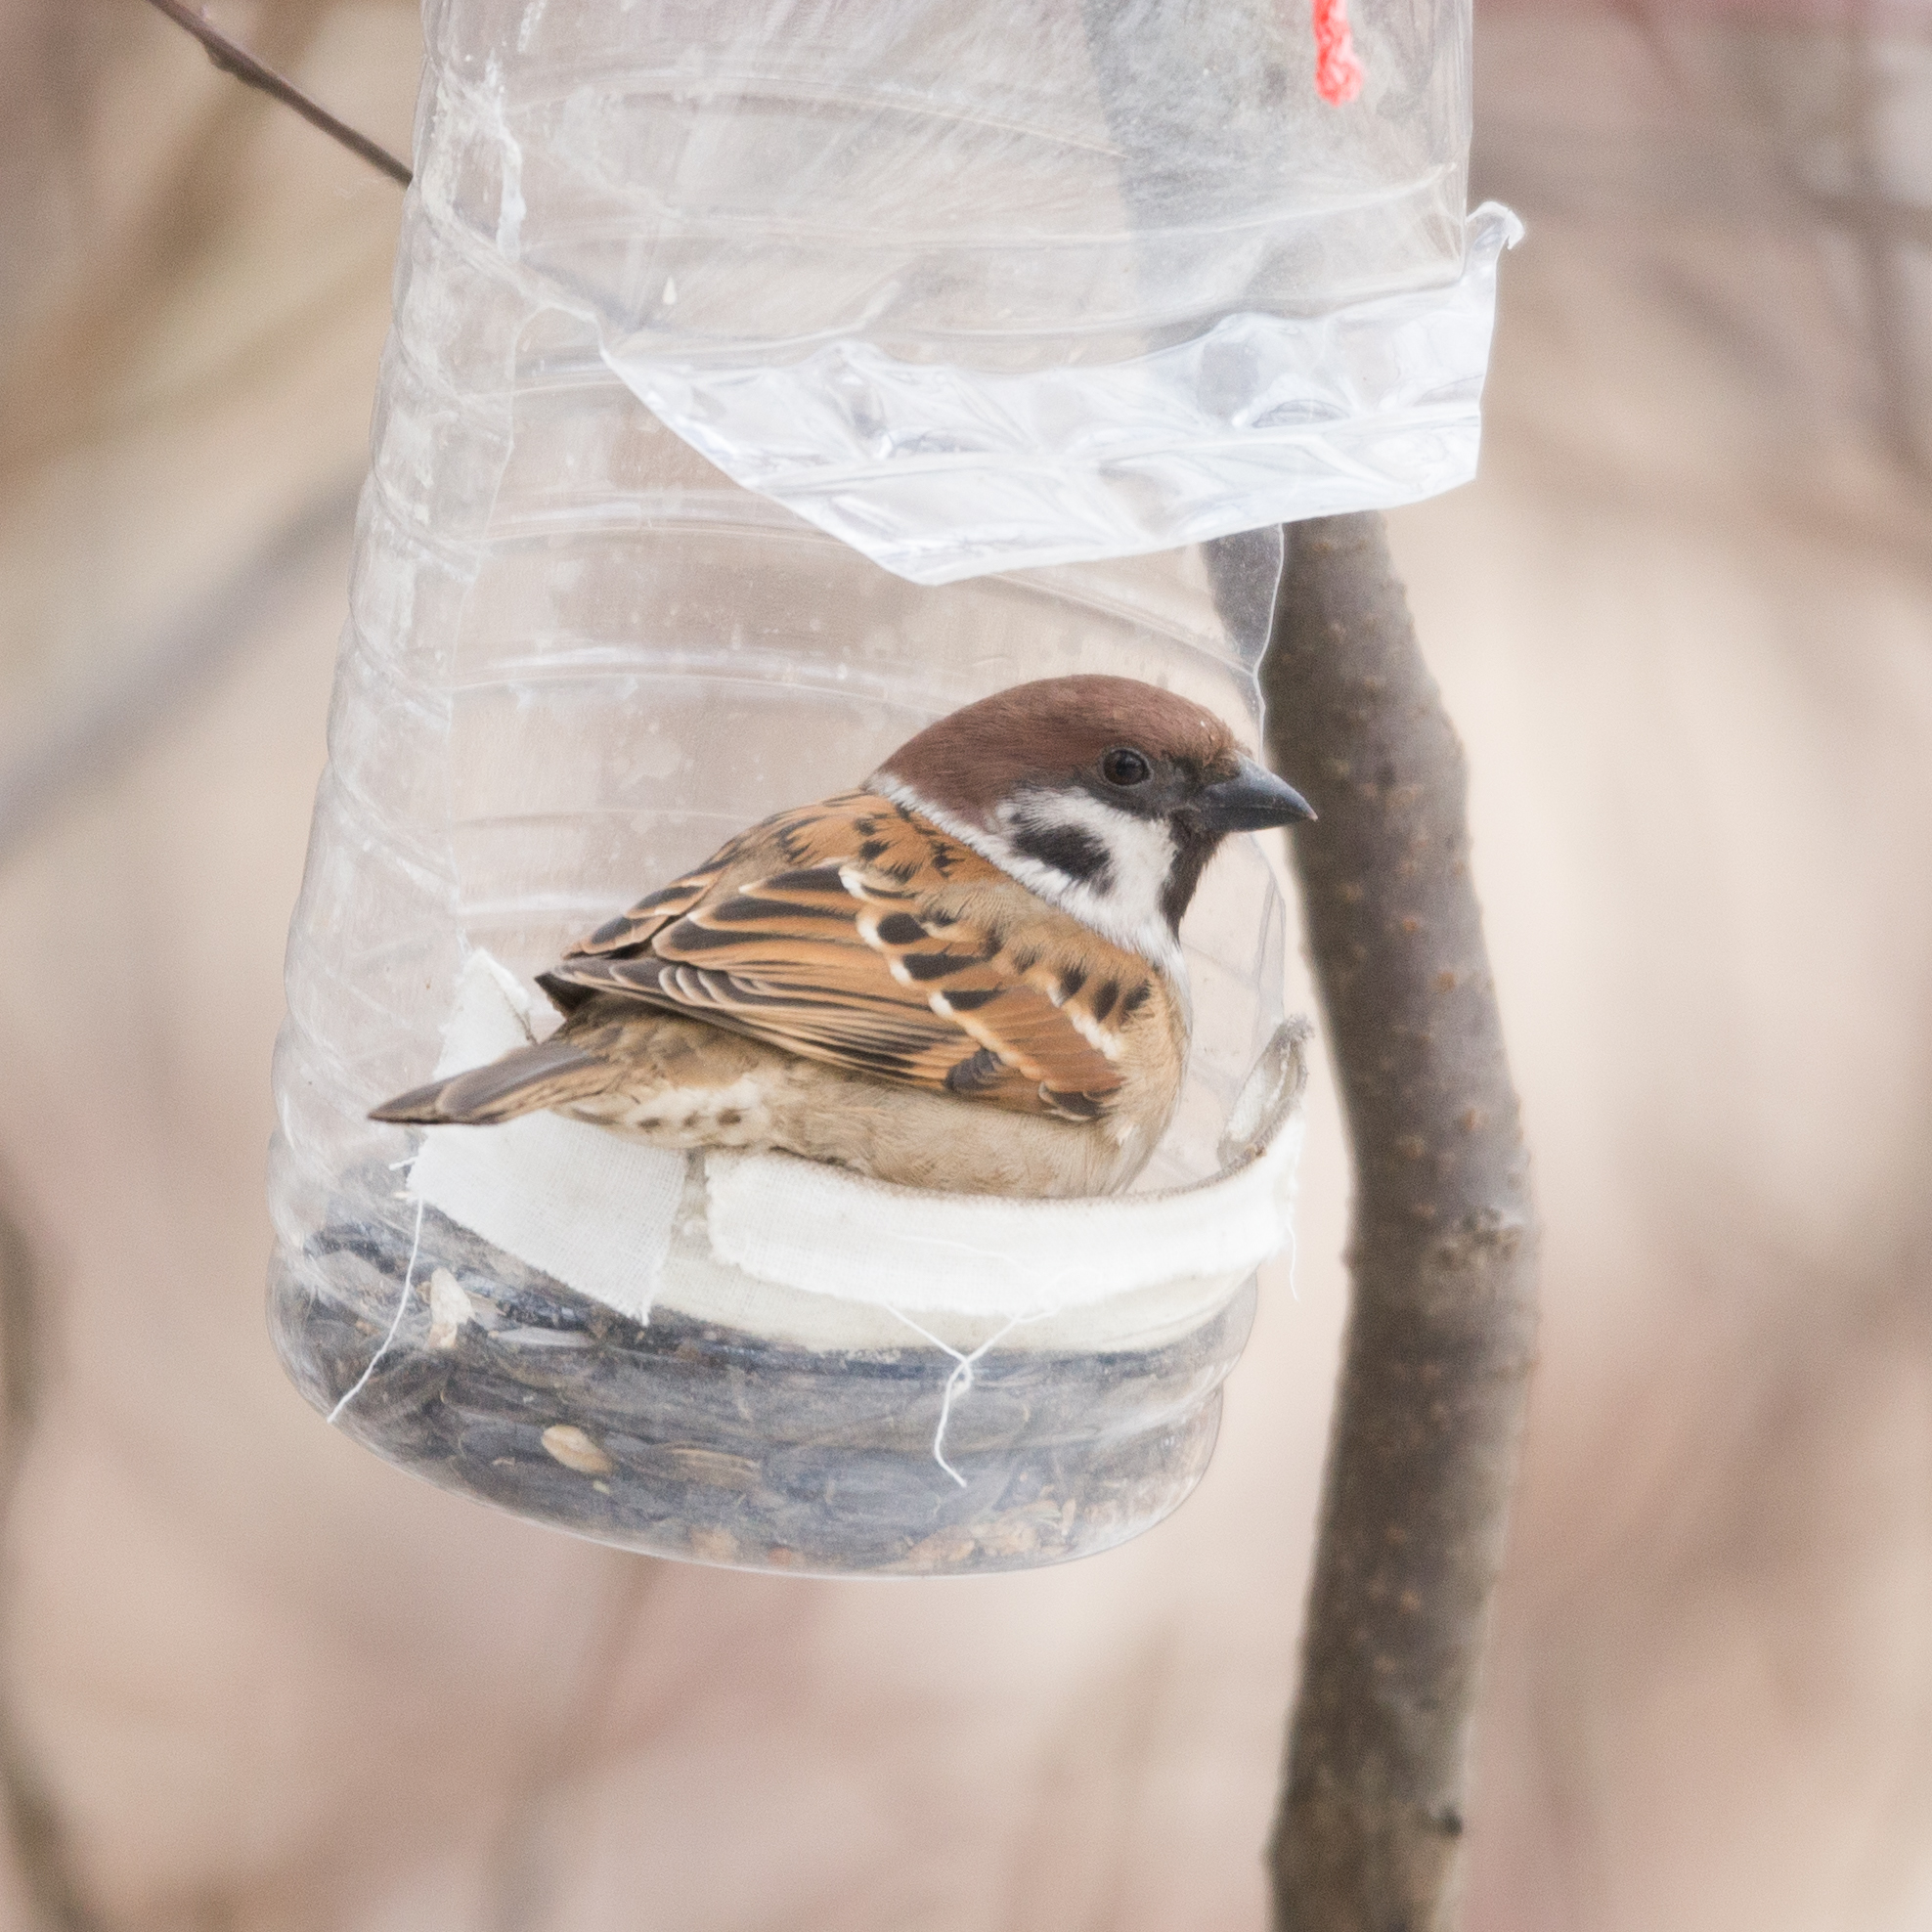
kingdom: Animalia
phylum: Chordata
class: Aves
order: Passeriformes
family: Passeridae
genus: Passer
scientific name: Passer montanus
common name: Eurasian tree sparrow
